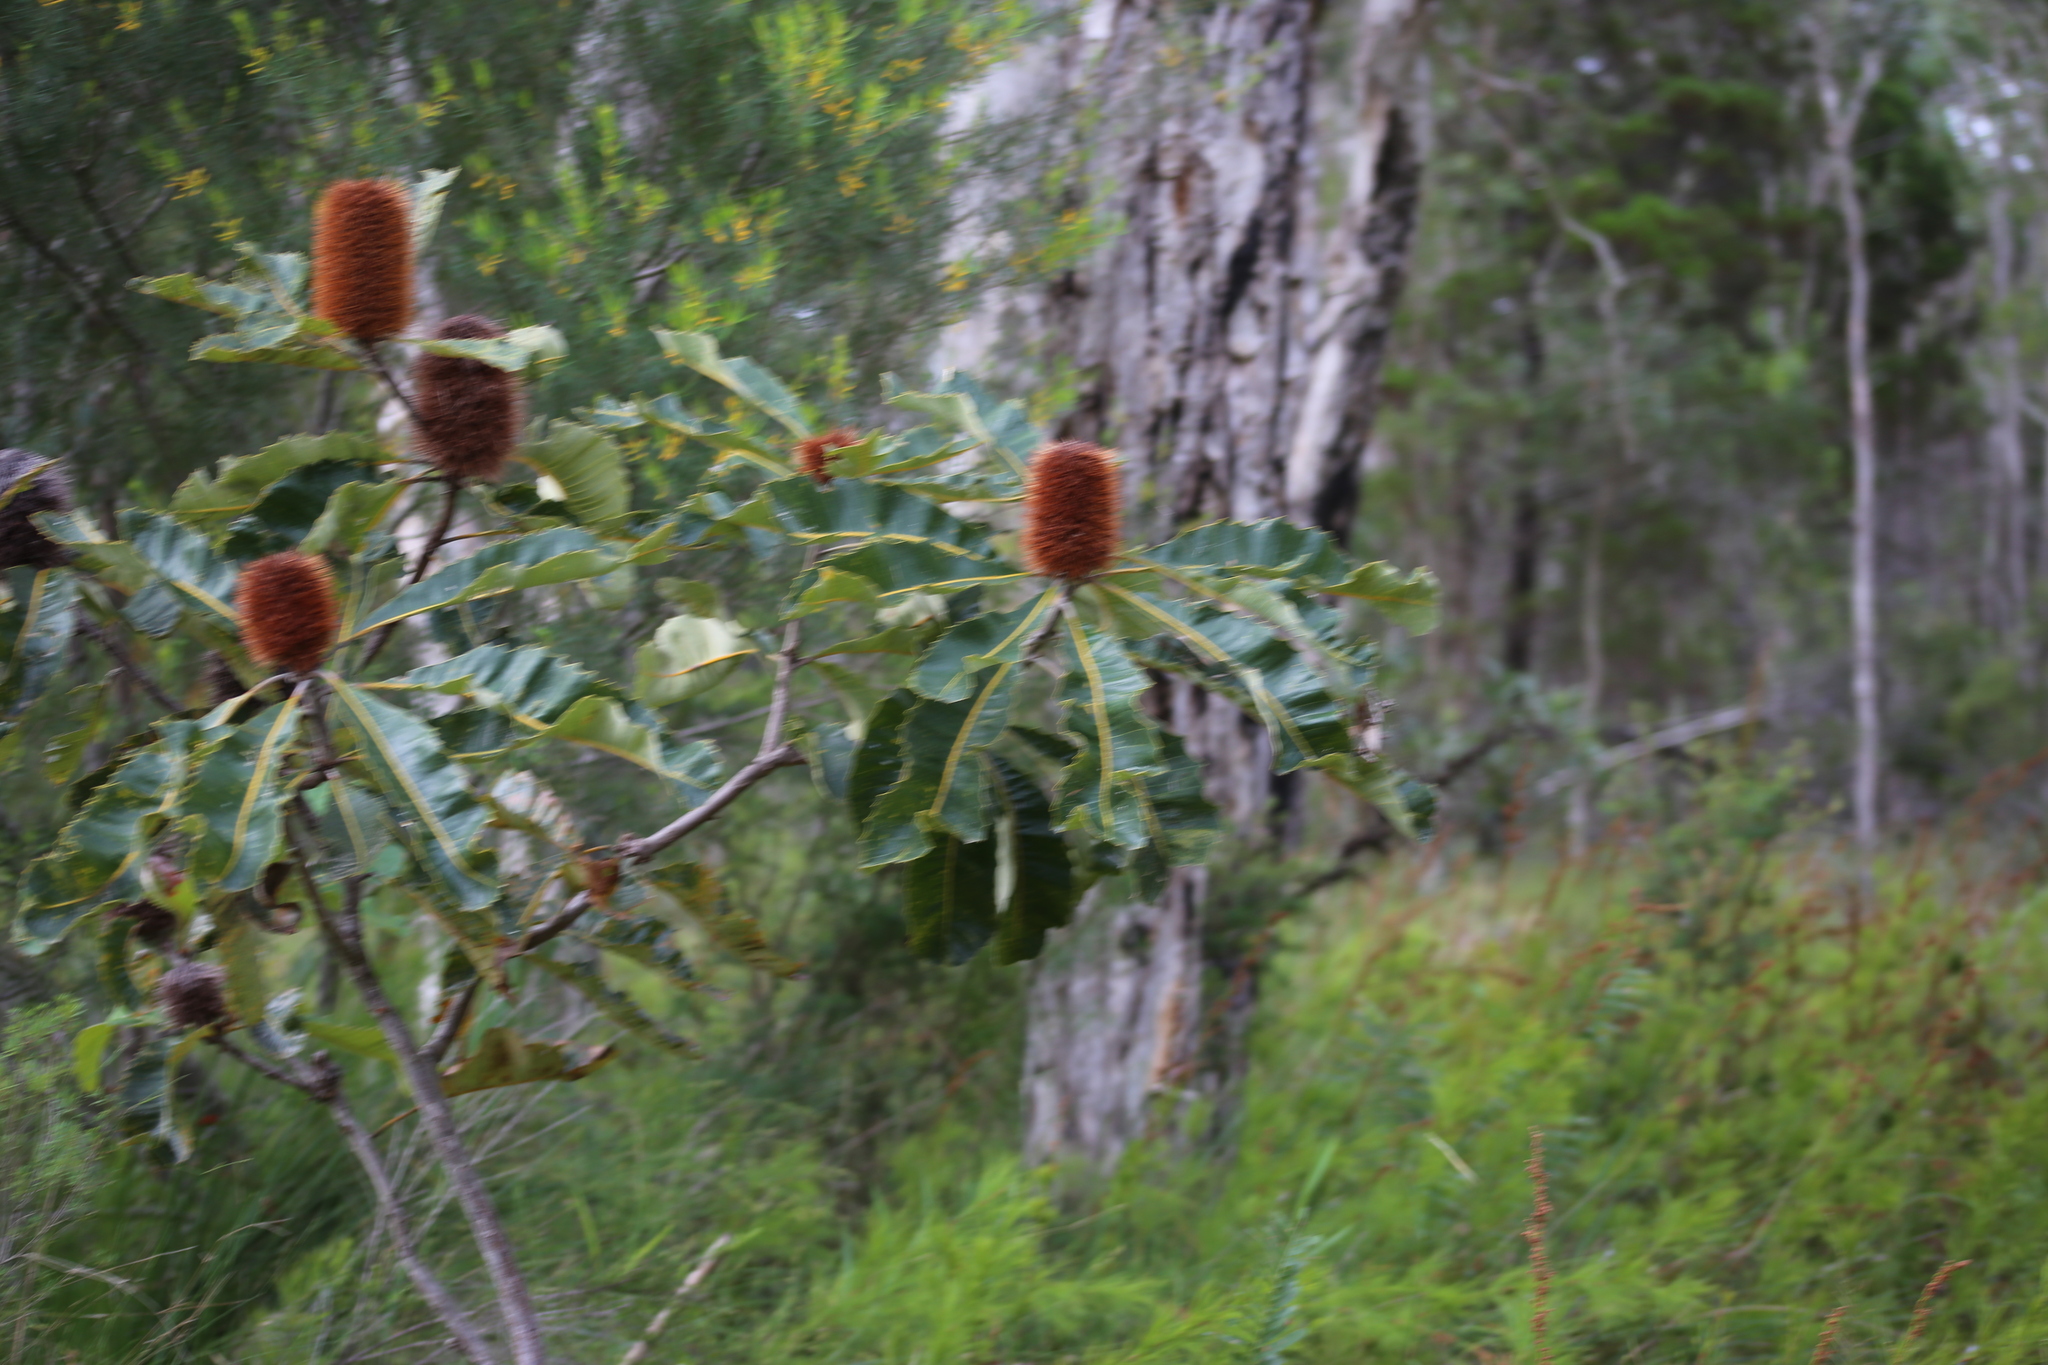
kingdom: Plantae
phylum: Tracheophyta
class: Magnoliopsida
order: Proteales
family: Proteaceae
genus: Banksia
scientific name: Banksia robur
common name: Broadleaf banksia
